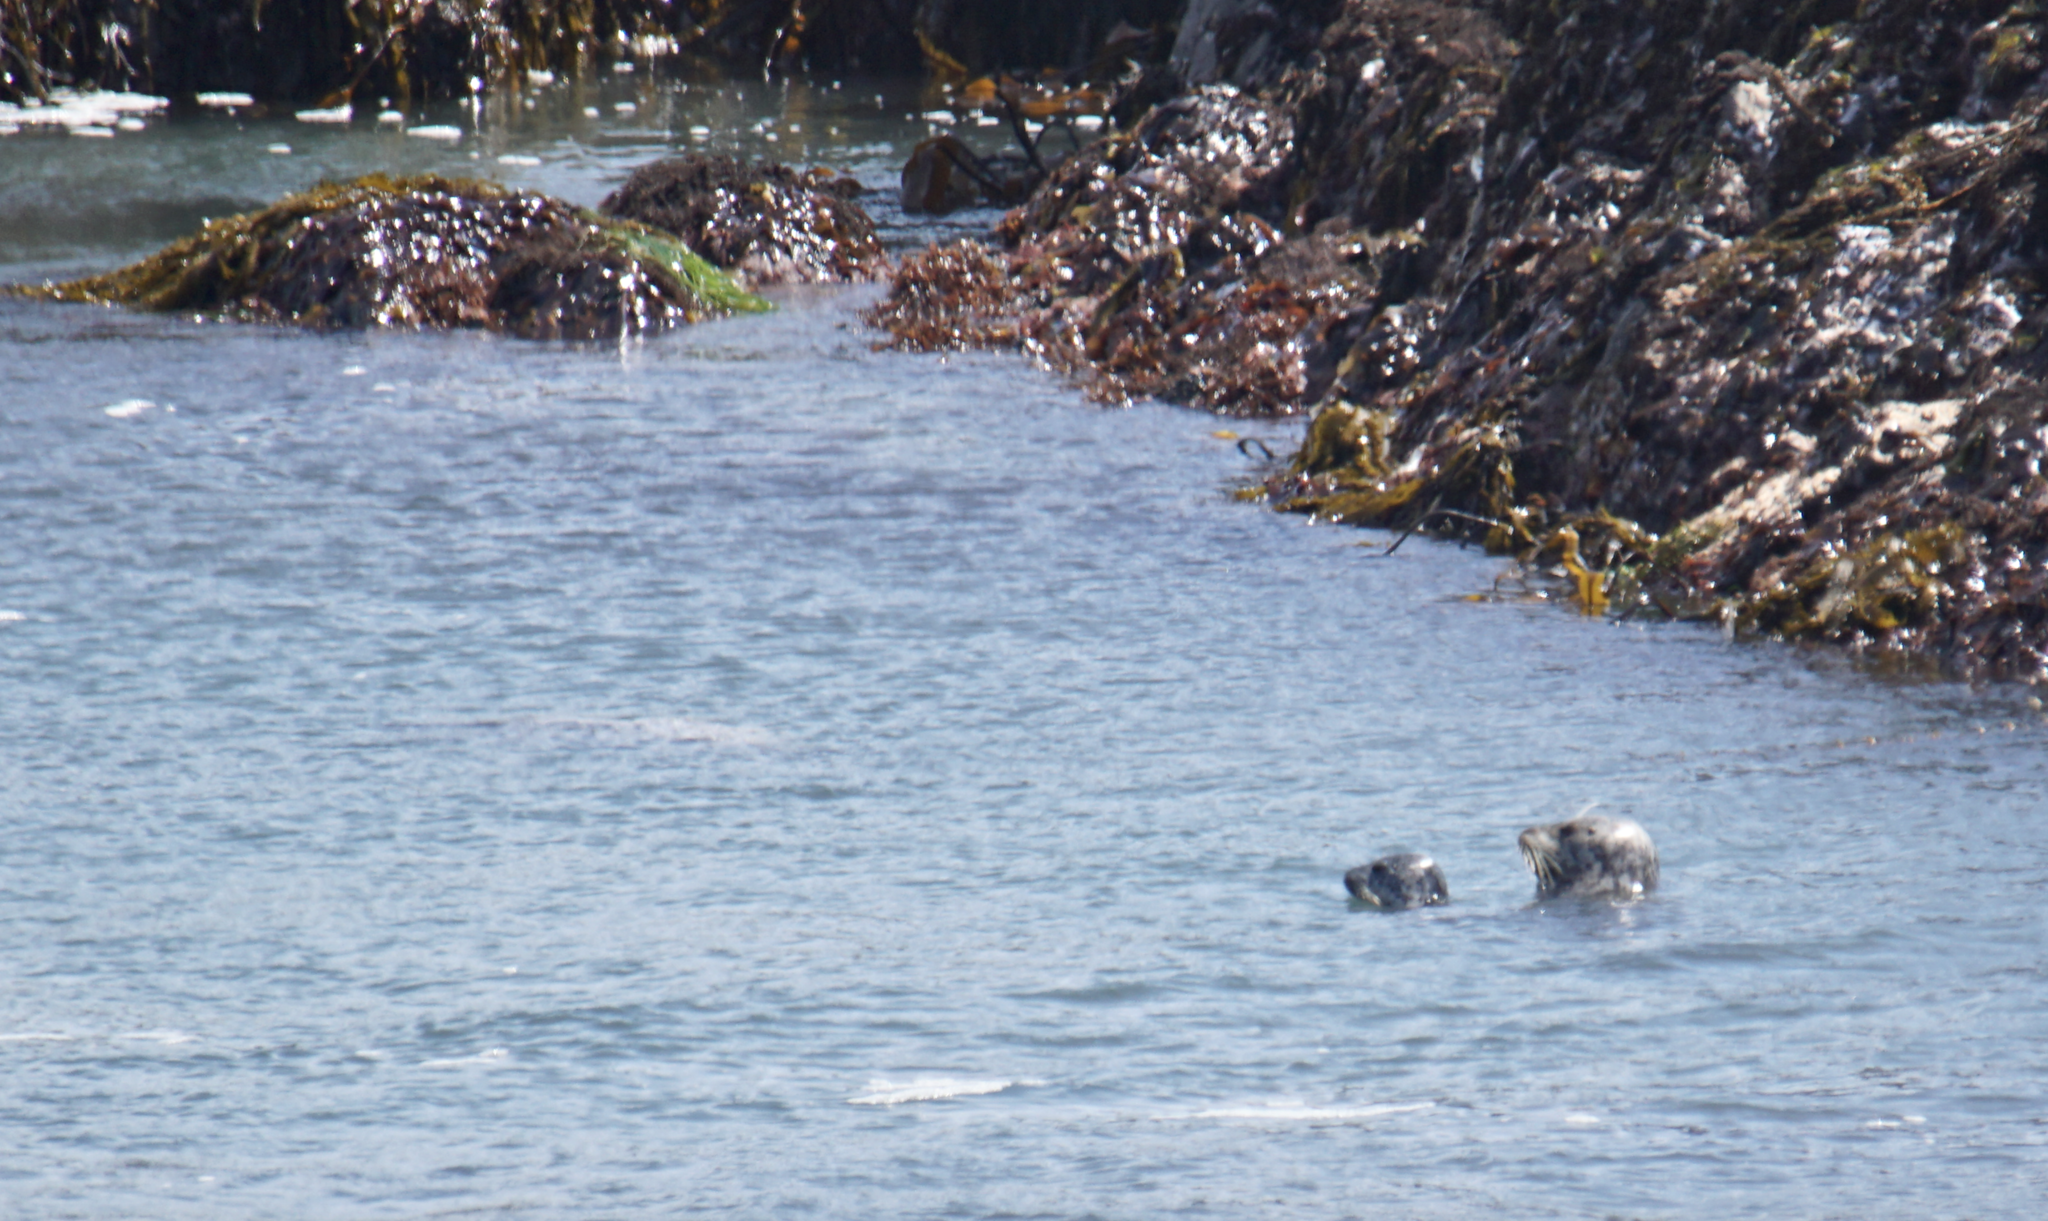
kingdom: Animalia
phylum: Chordata
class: Mammalia
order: Carnivora
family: Phocidae
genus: Phoca
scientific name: Phoca vitulina
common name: Harbor seal
